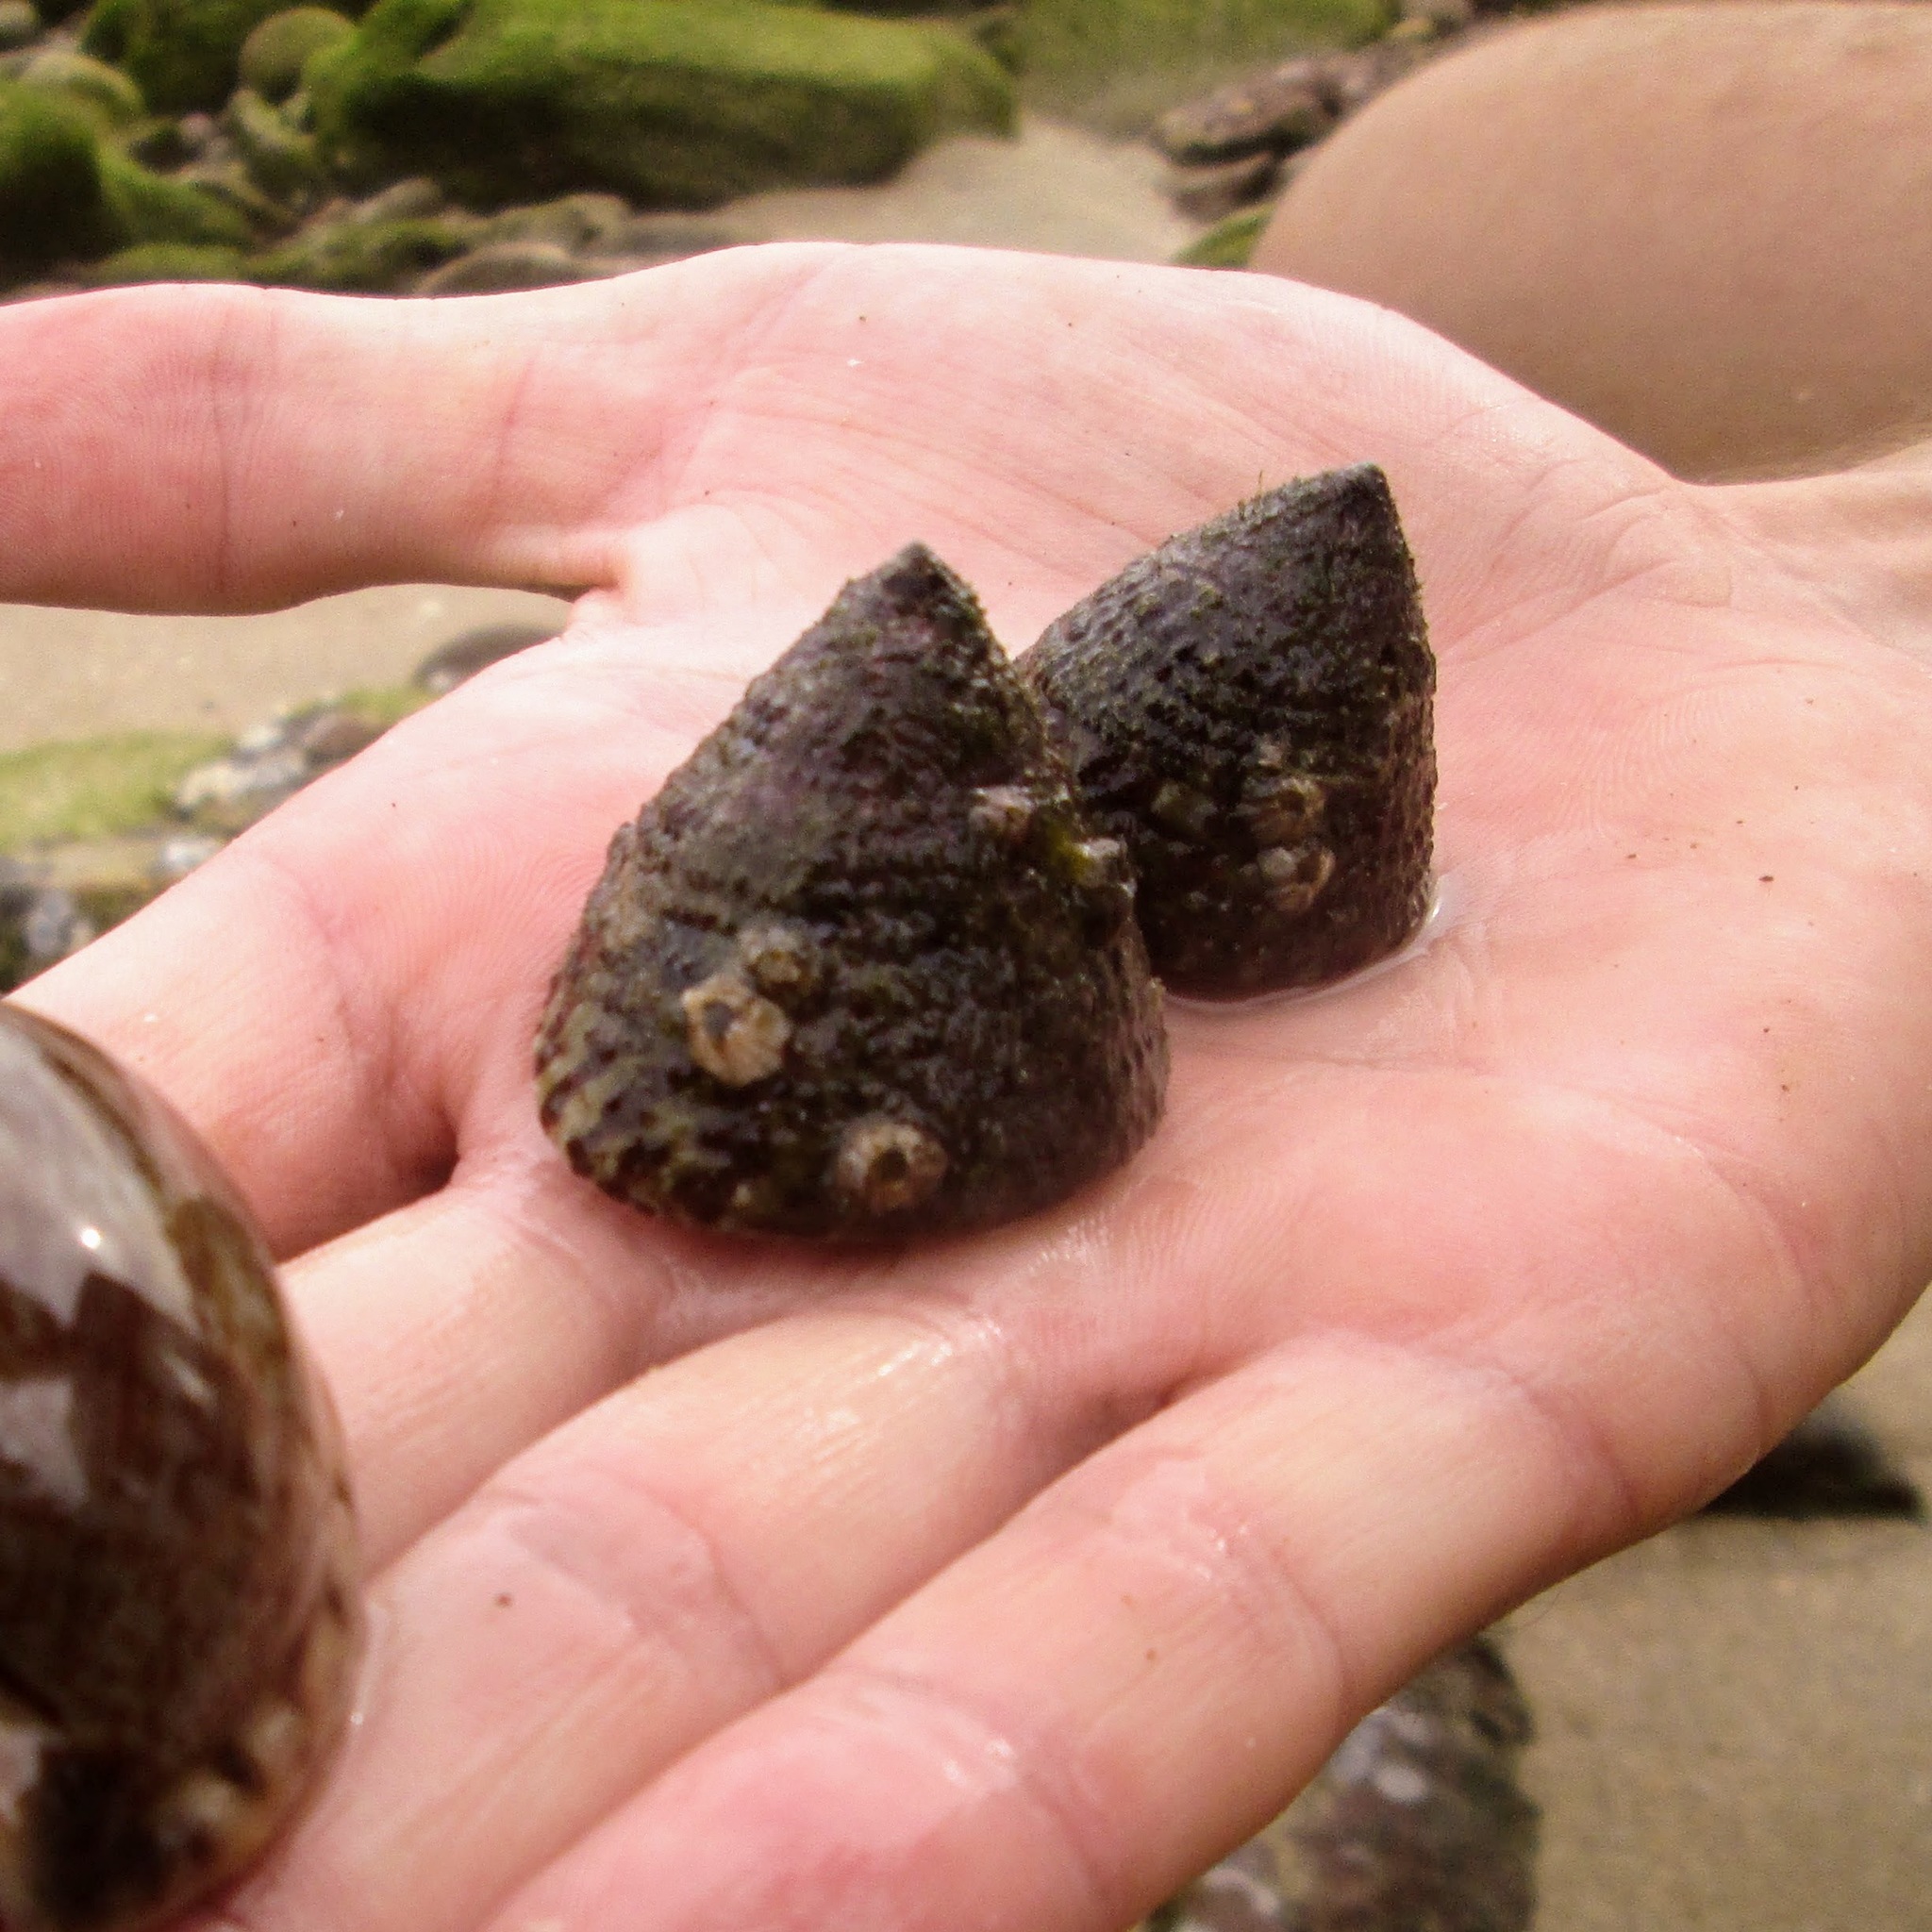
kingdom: Animalia
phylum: Mollusca
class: Gastropoda
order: Trochida
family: Trochidae
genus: Trochus
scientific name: Trochus maculatus
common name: Maculated top shell
